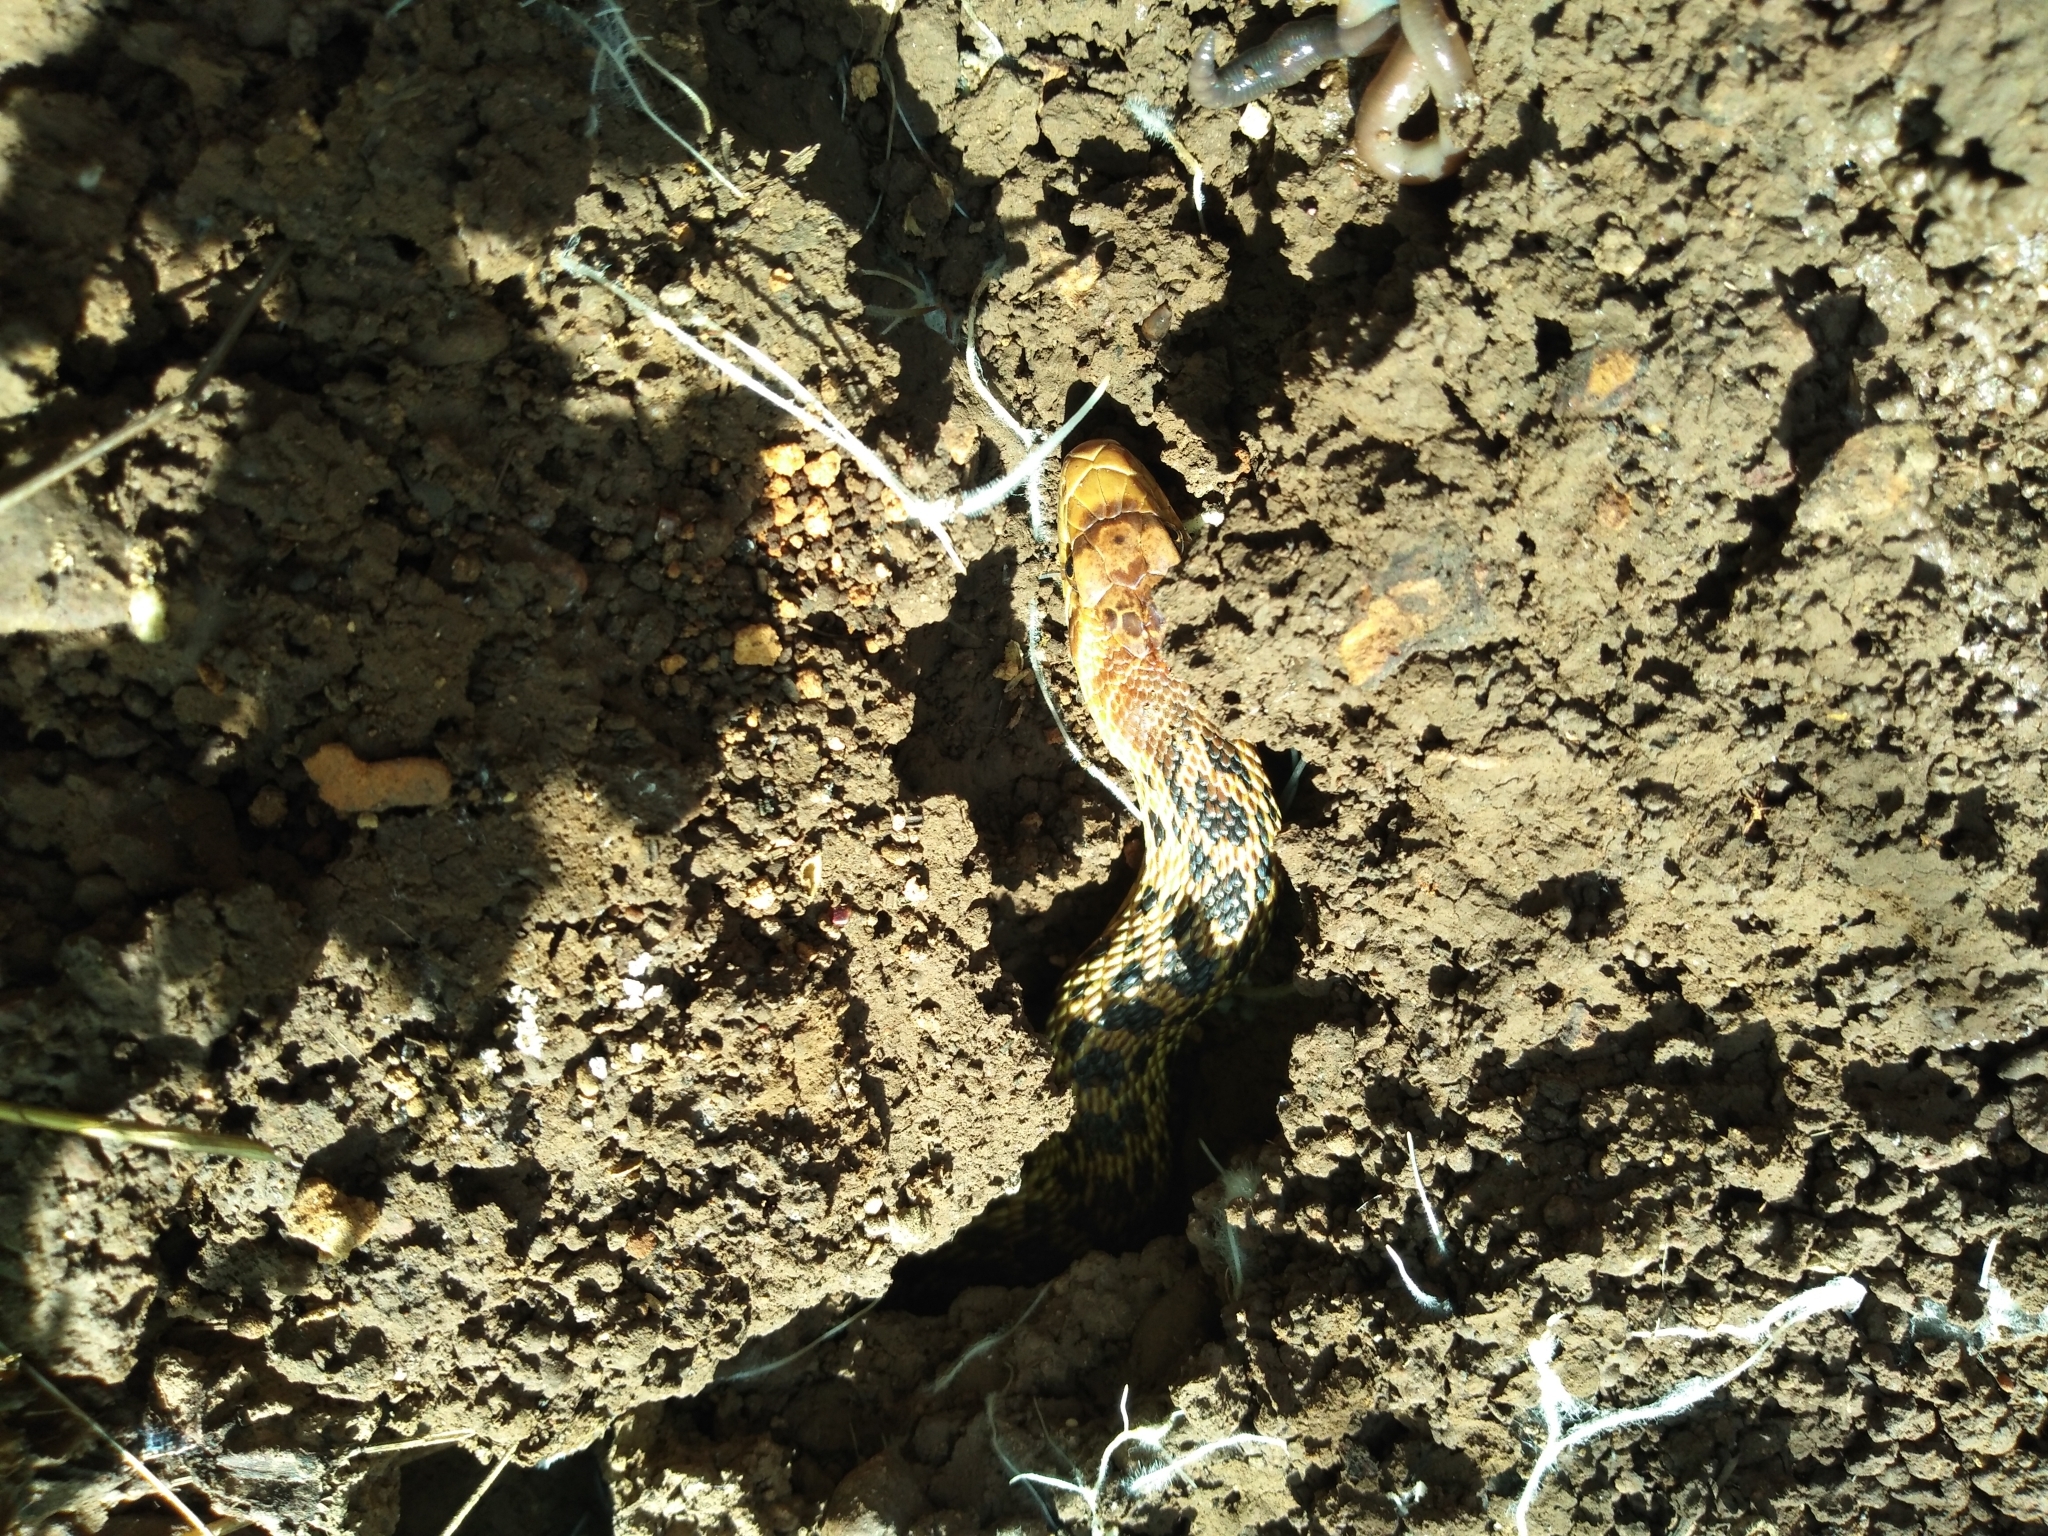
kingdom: Animalia
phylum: Chordata
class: Squamata
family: Colubridae
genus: Pituophis
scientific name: Pituophis catenifer
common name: Gopher snake
